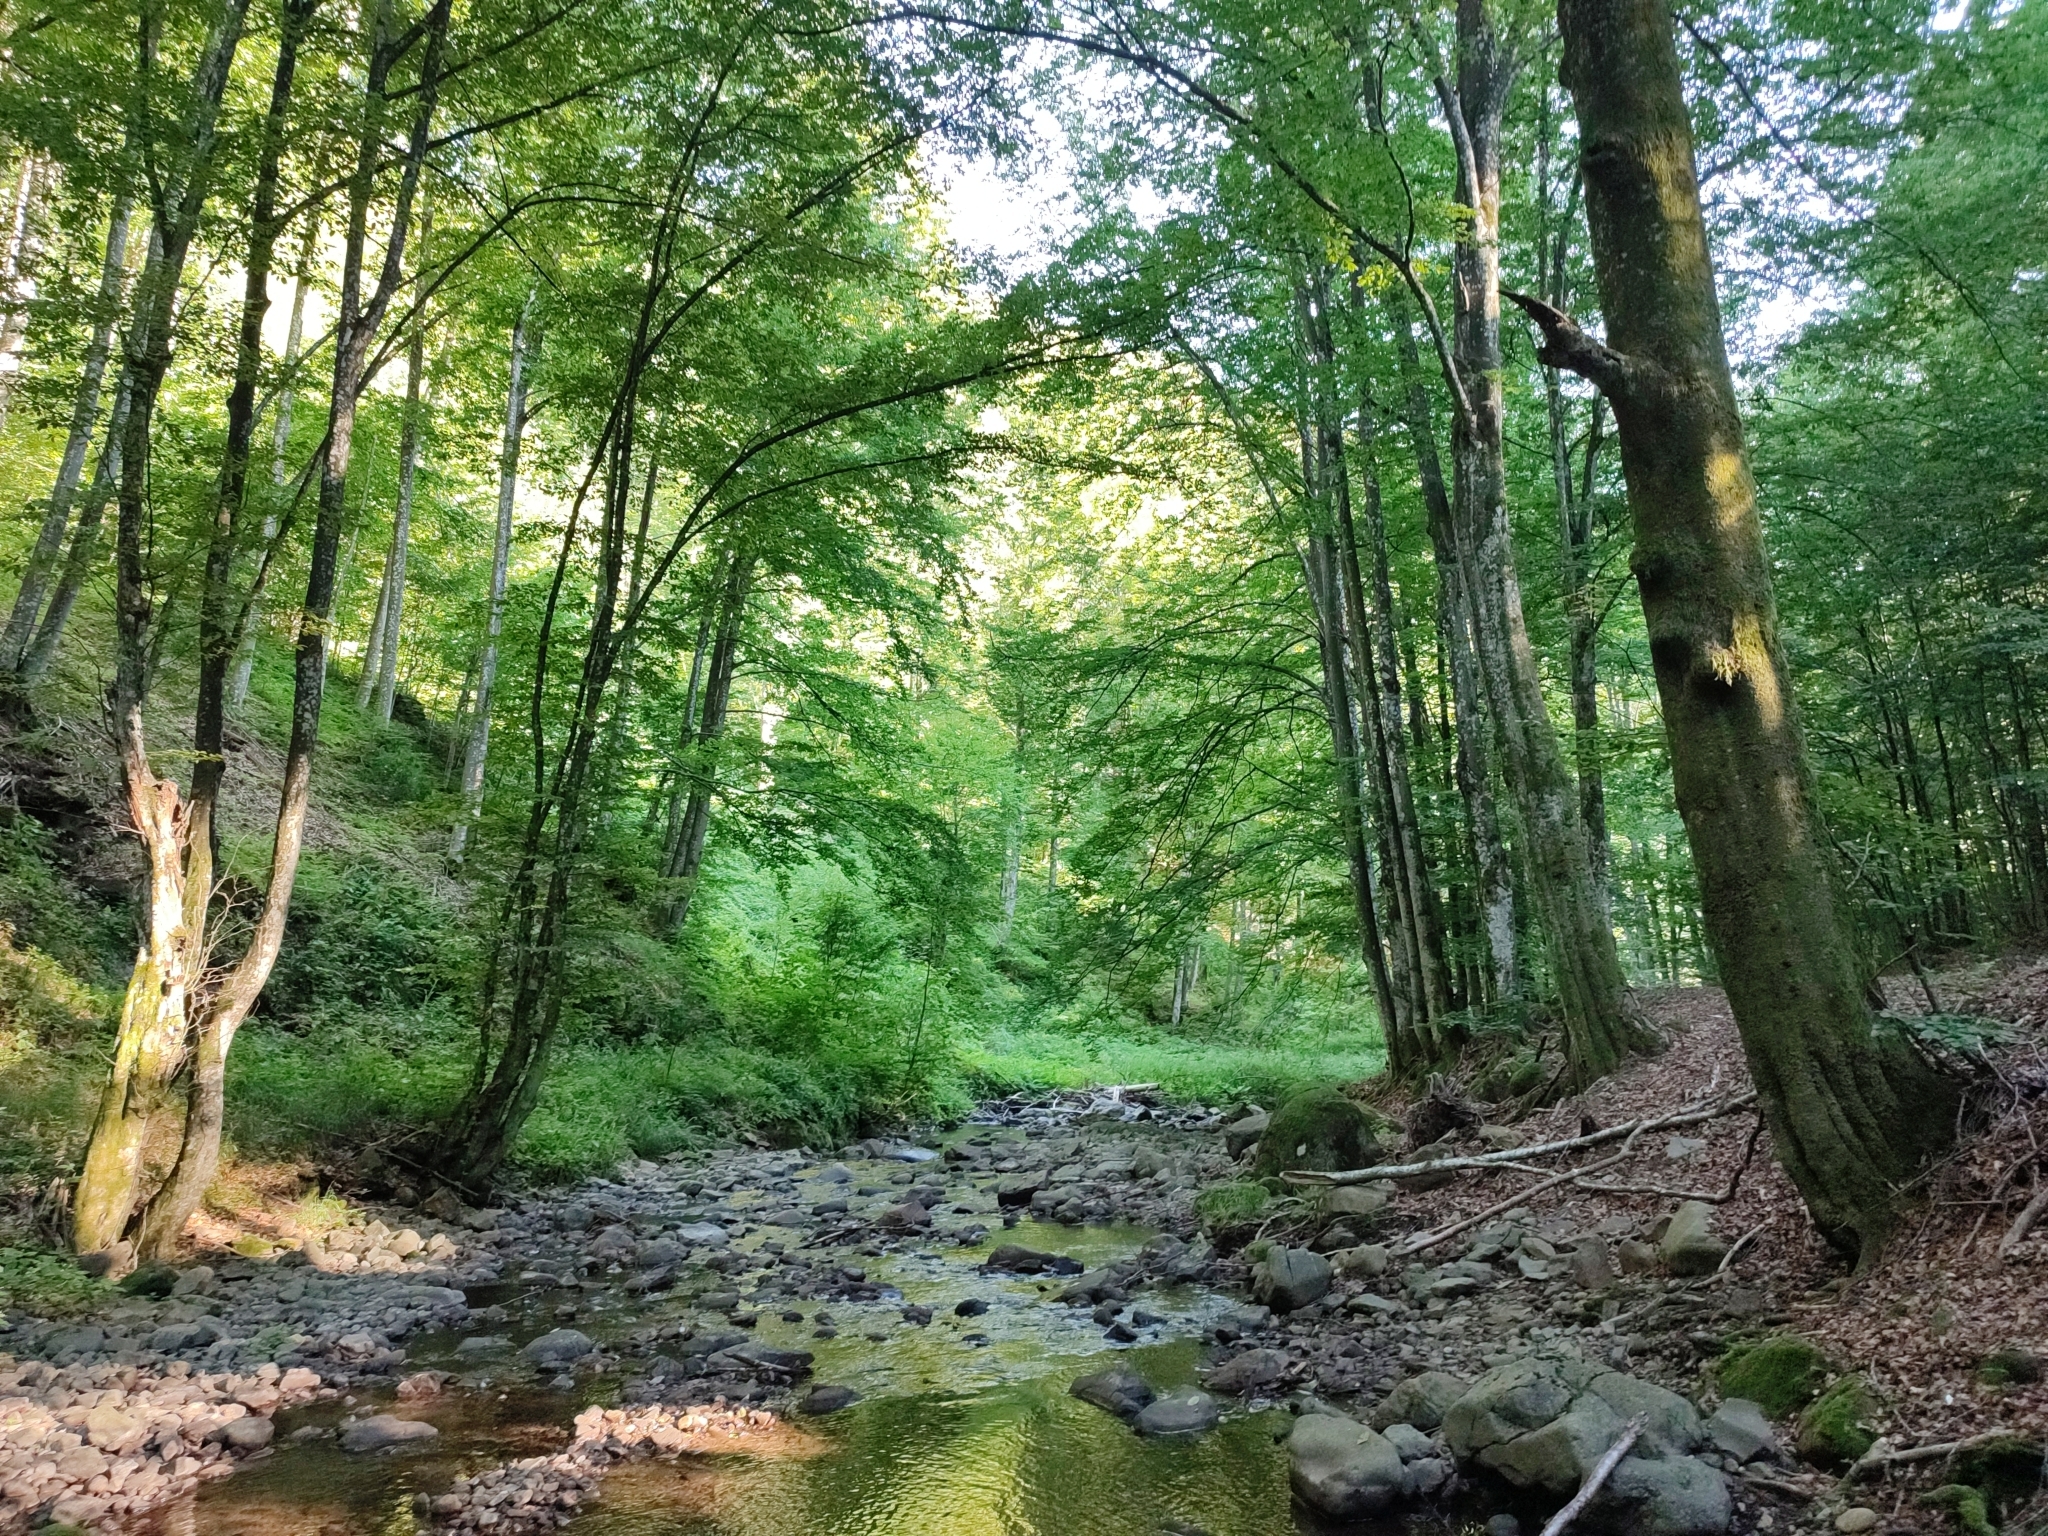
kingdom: Plantae
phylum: Tracheophyta
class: Magnoliopsida
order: Fagales
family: Fagaceae
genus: Fagus
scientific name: Fagus sylvatica
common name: Beech
